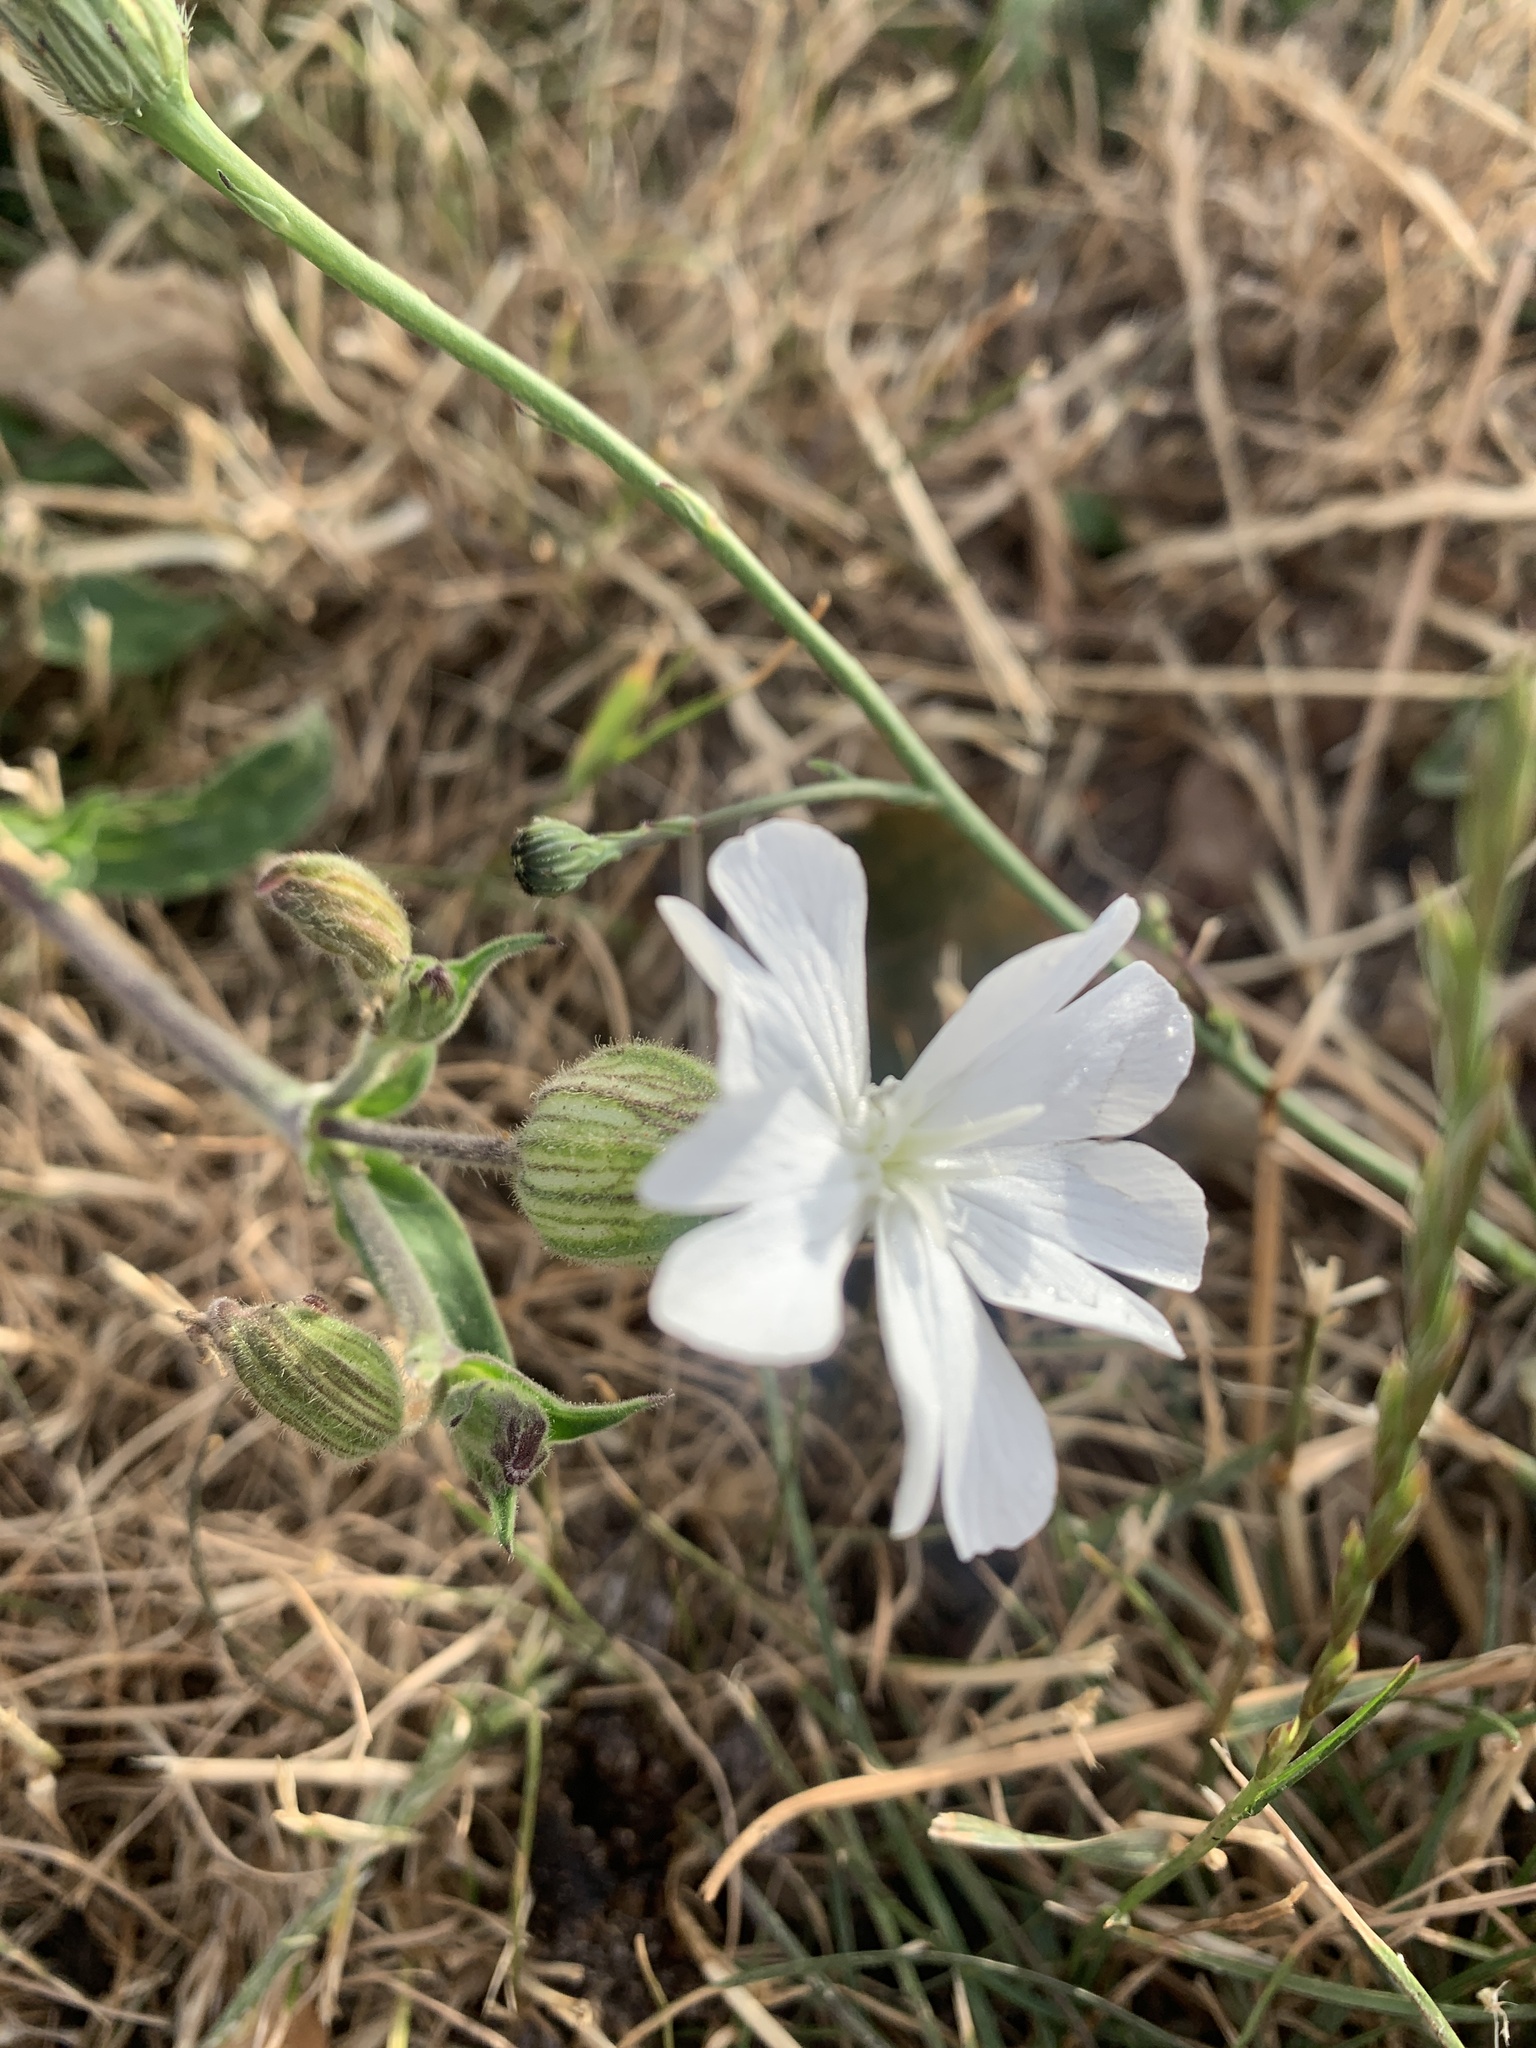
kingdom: Plantae
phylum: Tracheophyta
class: Magnoliopsida
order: Caryophyllales
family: Caryophyllaceae
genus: Silene
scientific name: Silene latifolia
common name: White campion
